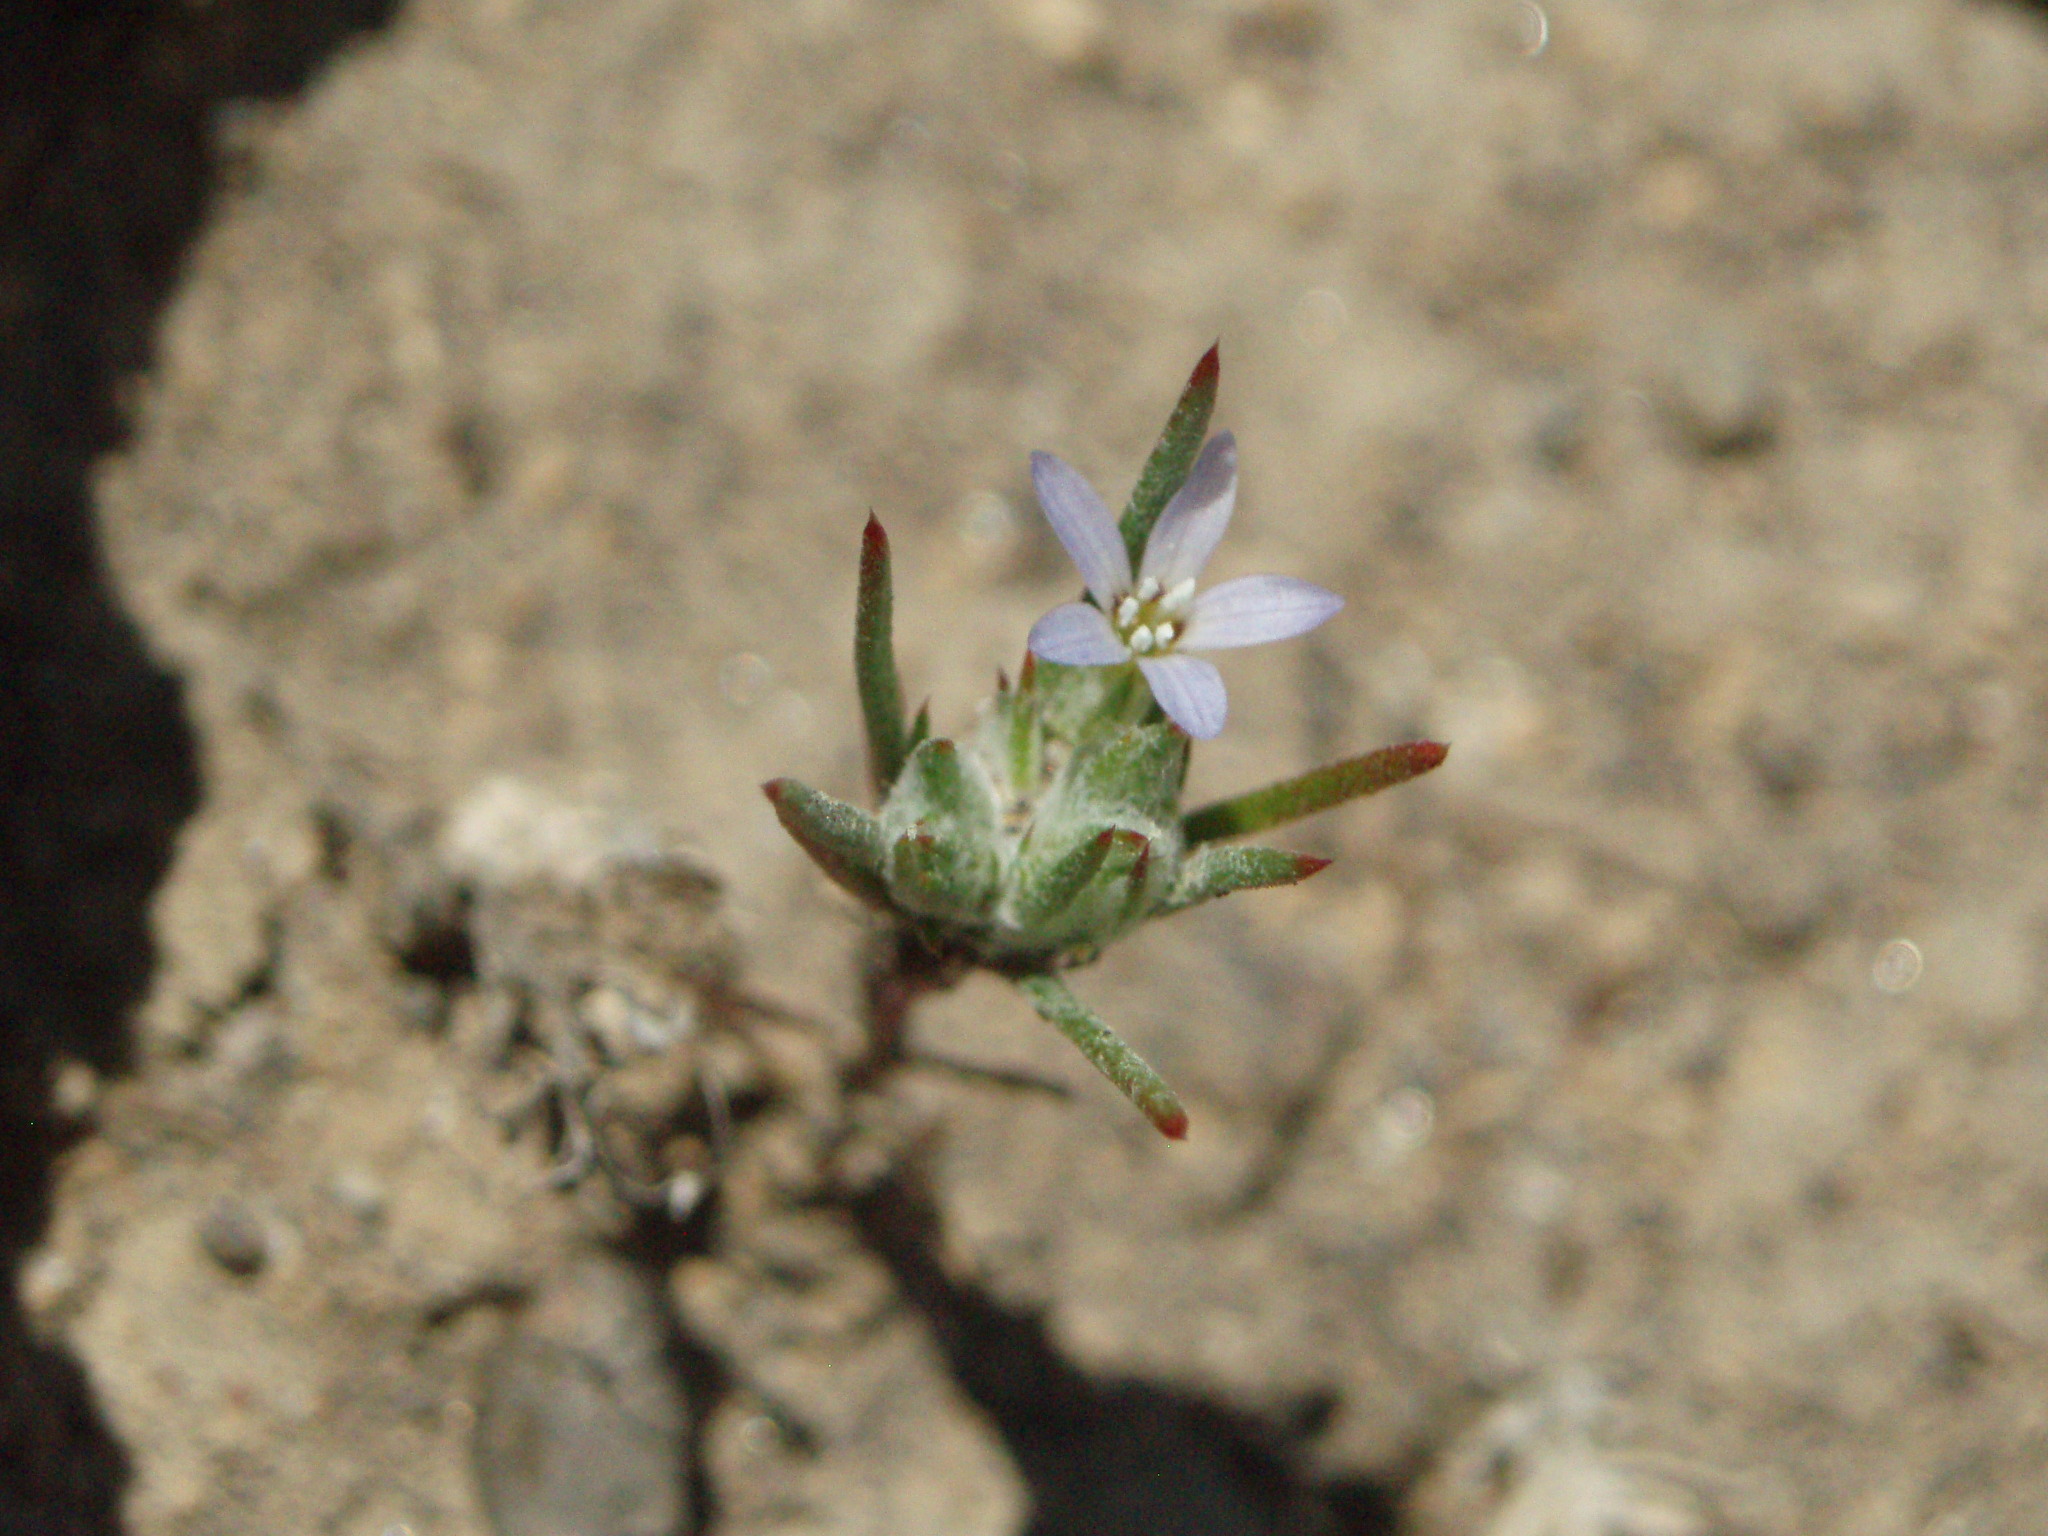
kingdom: Plantae
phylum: Tracheophyta
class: Magnoliopsida
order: Ericales
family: Polemoniaceae
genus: Eriastrum
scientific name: Eriastrum signatum
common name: Great basin woollystar
